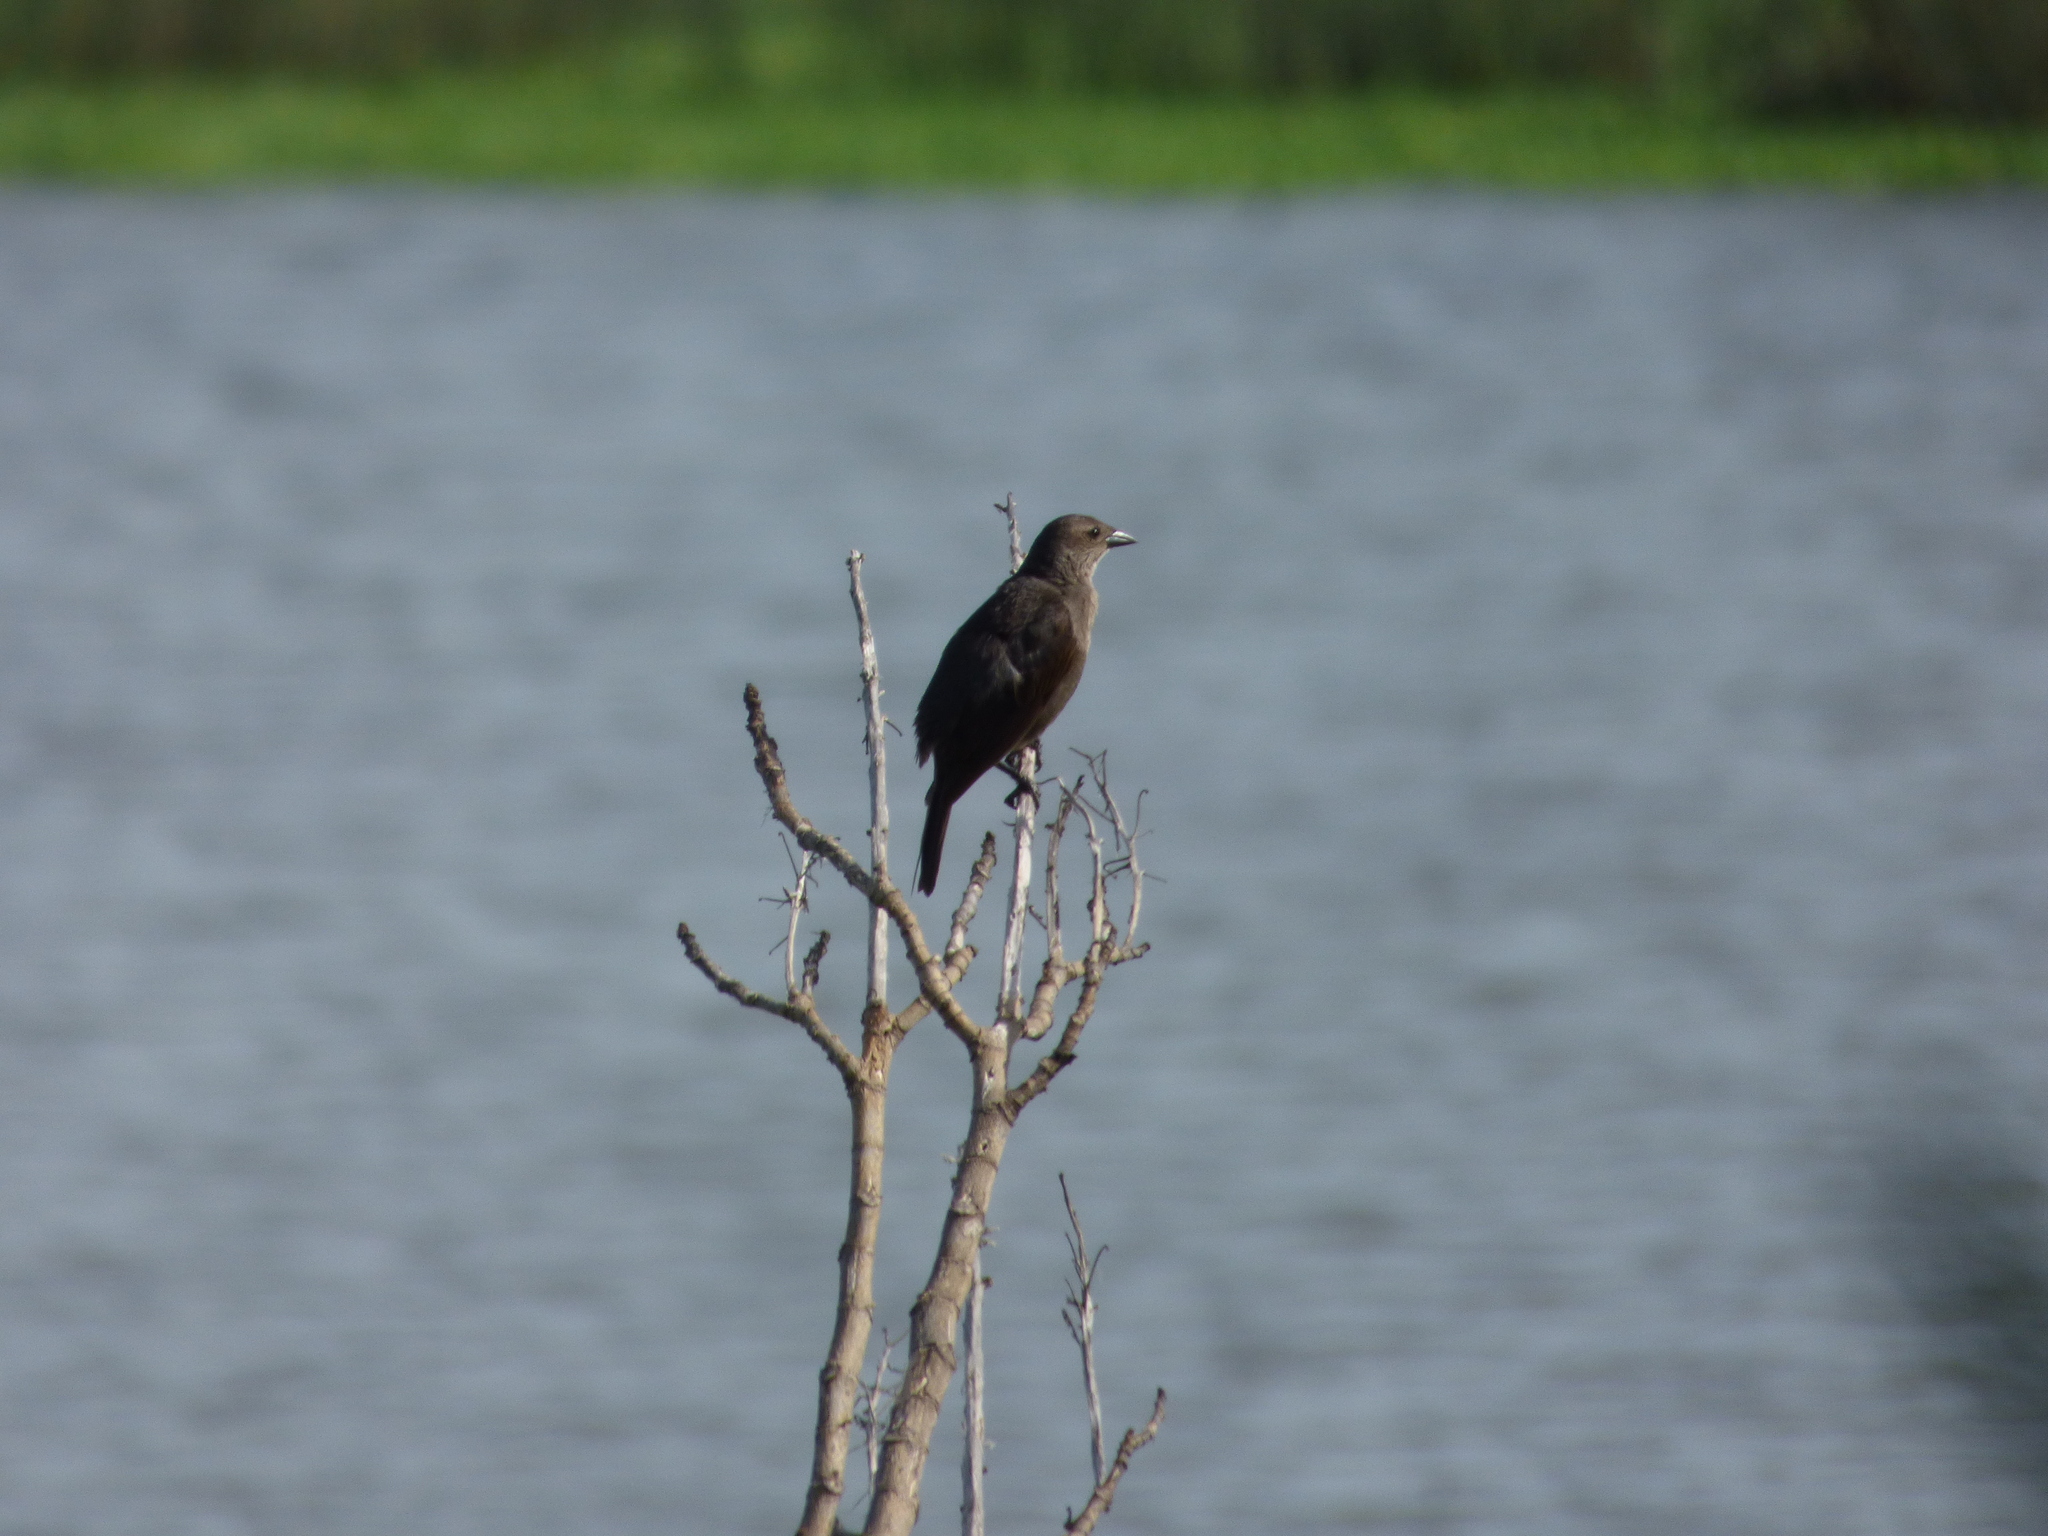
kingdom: Animalia
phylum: Chordata
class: Aves
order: Passeriformes
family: Icteridae
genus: Molothrus
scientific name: Molothrus bonariensis
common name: Shiny cowbird
